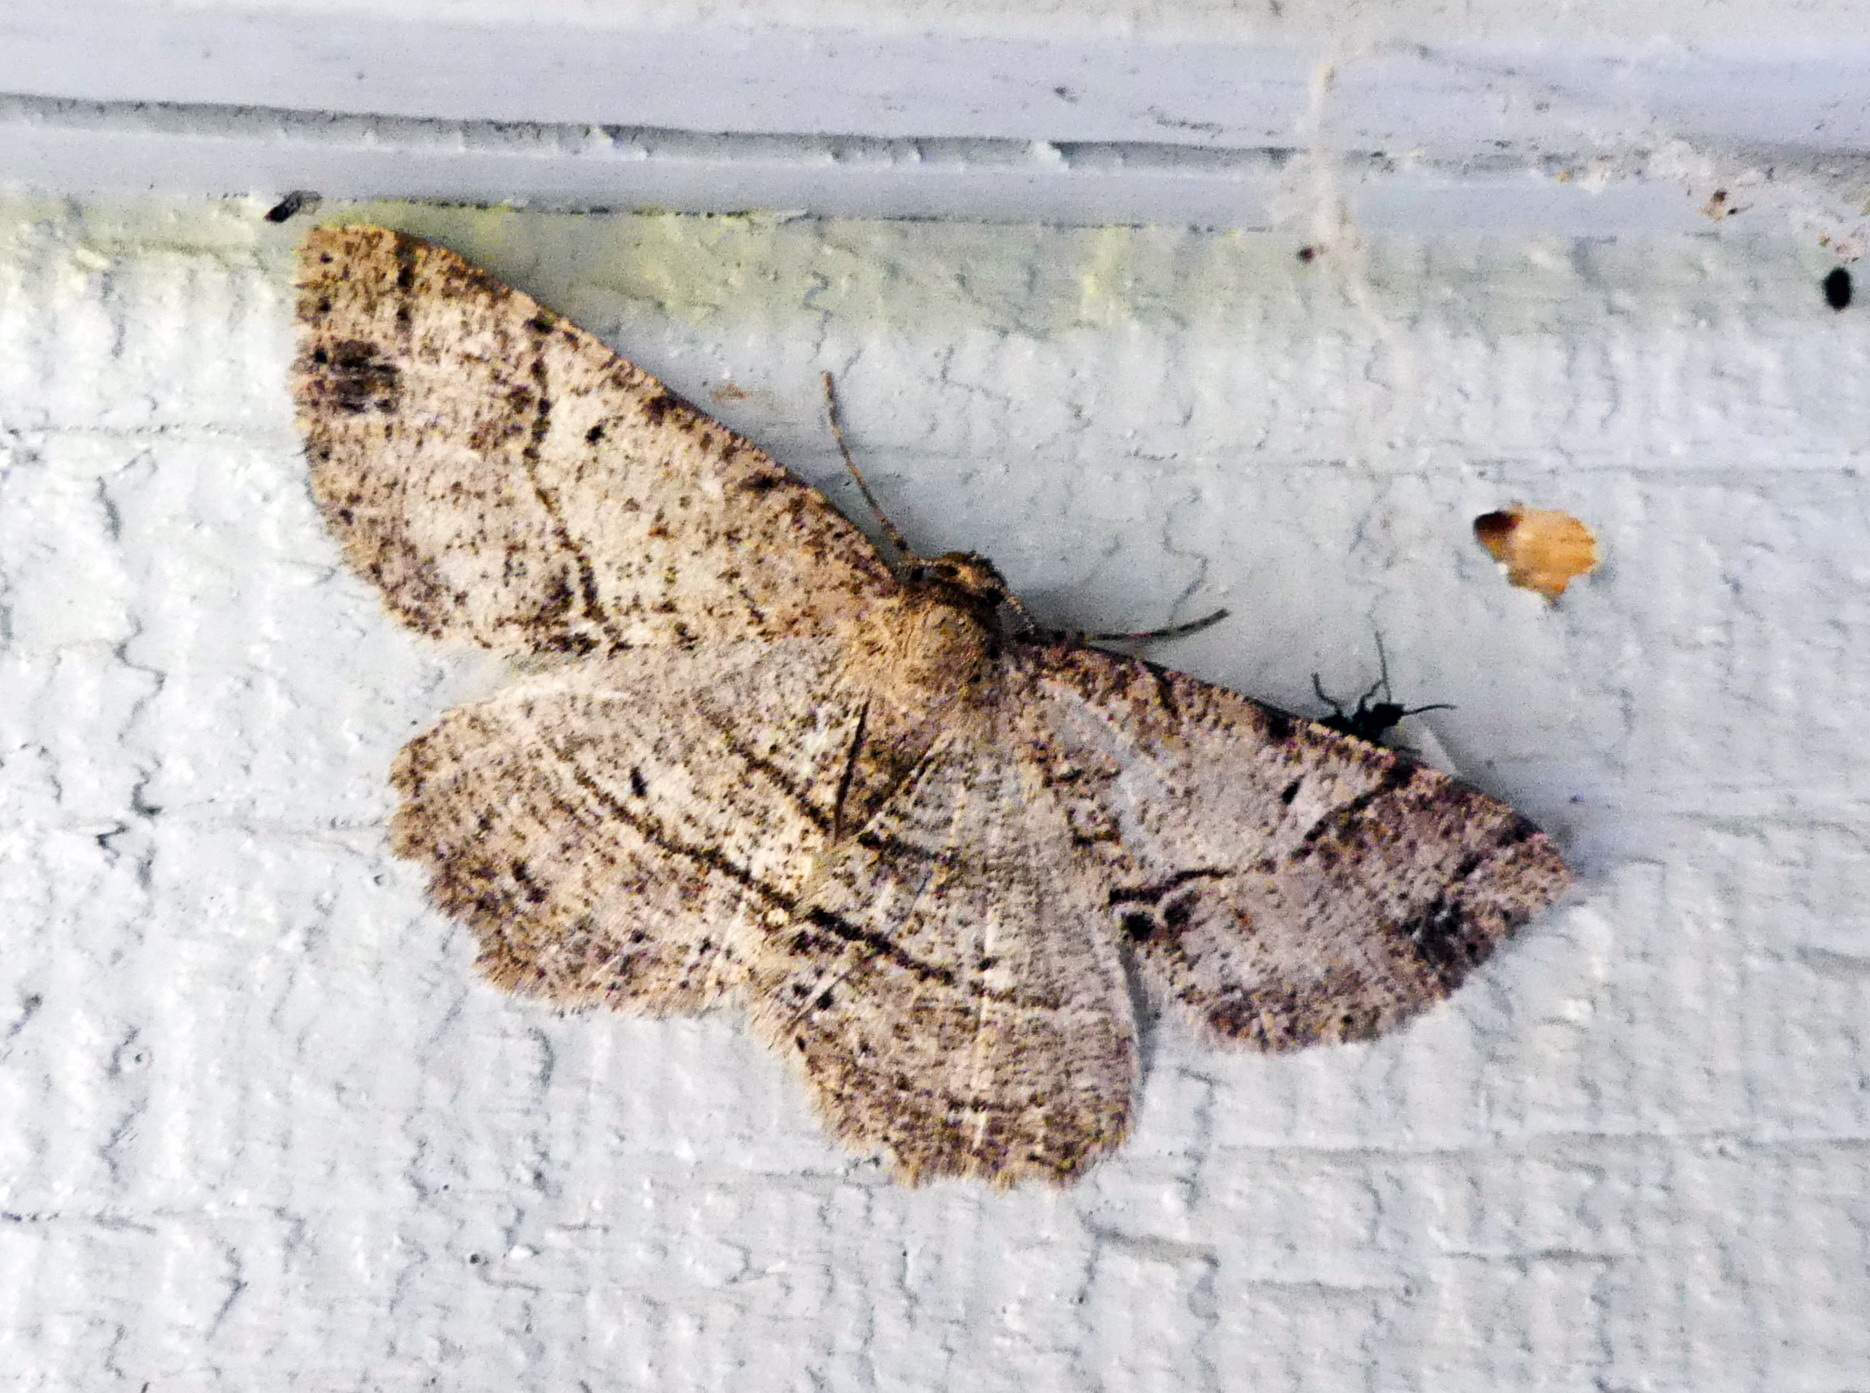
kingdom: Animalia
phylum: Arthropoda
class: Insecta
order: Lepidoptera
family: Geometridae
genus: Melanolophia
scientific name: Melanolophia canadaria
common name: Canadian melanolophia
